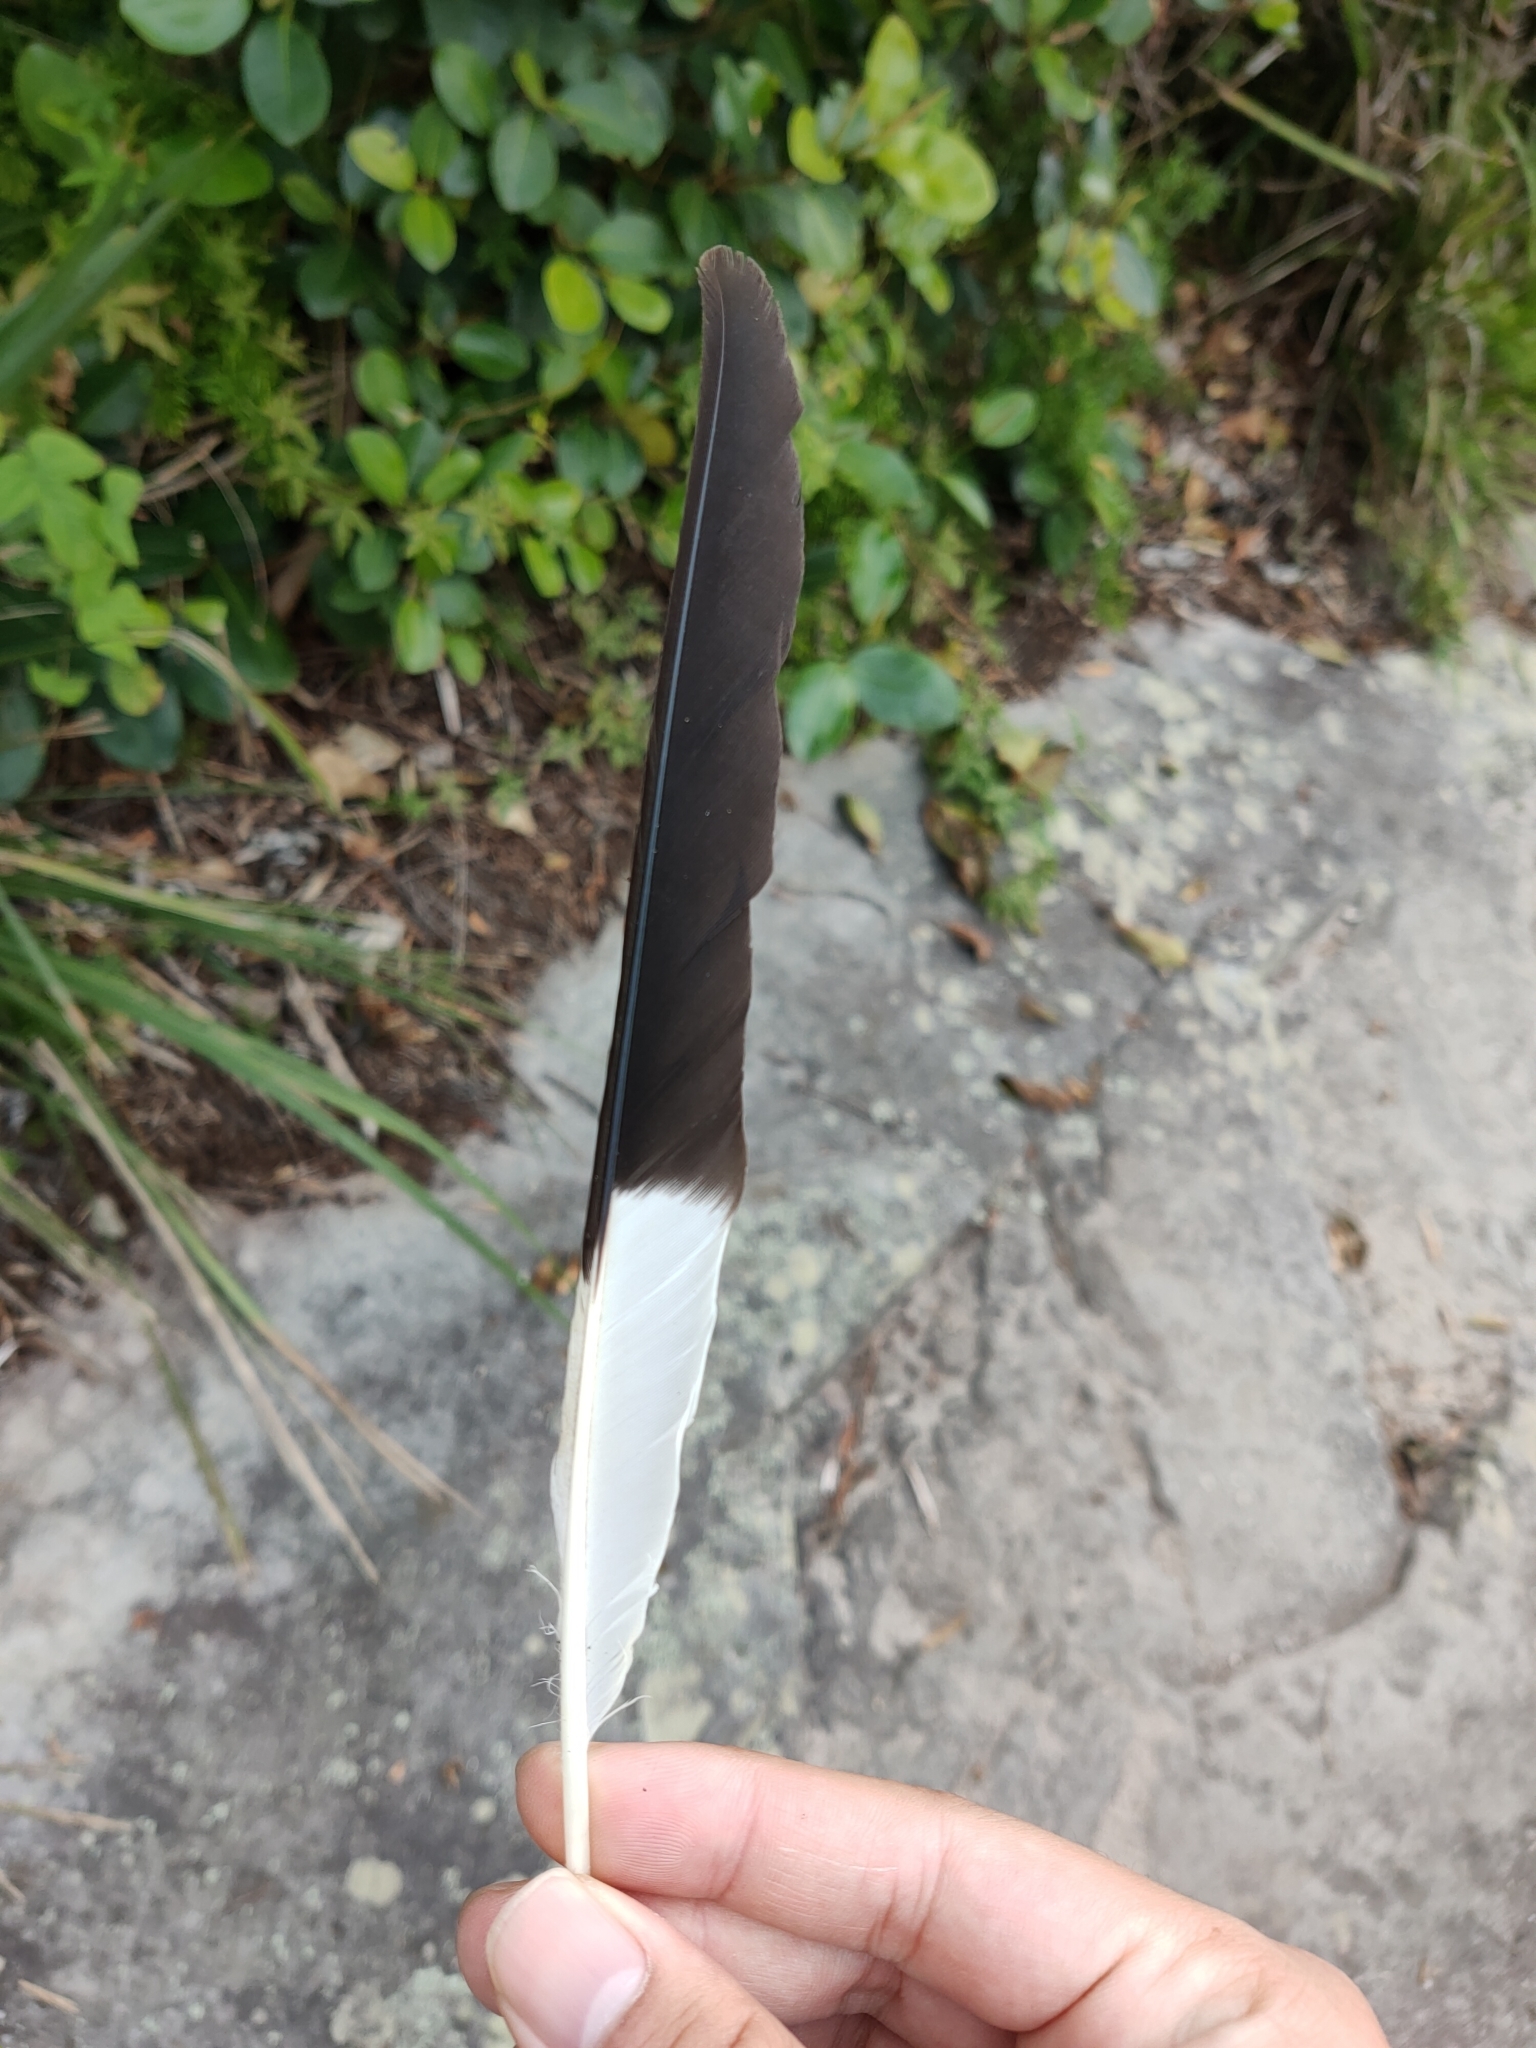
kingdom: Animalia
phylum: Chordata
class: Aves
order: Passeriformes
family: Cracticidae
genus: Strepera
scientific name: Strepera graculina
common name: Pied currawong
